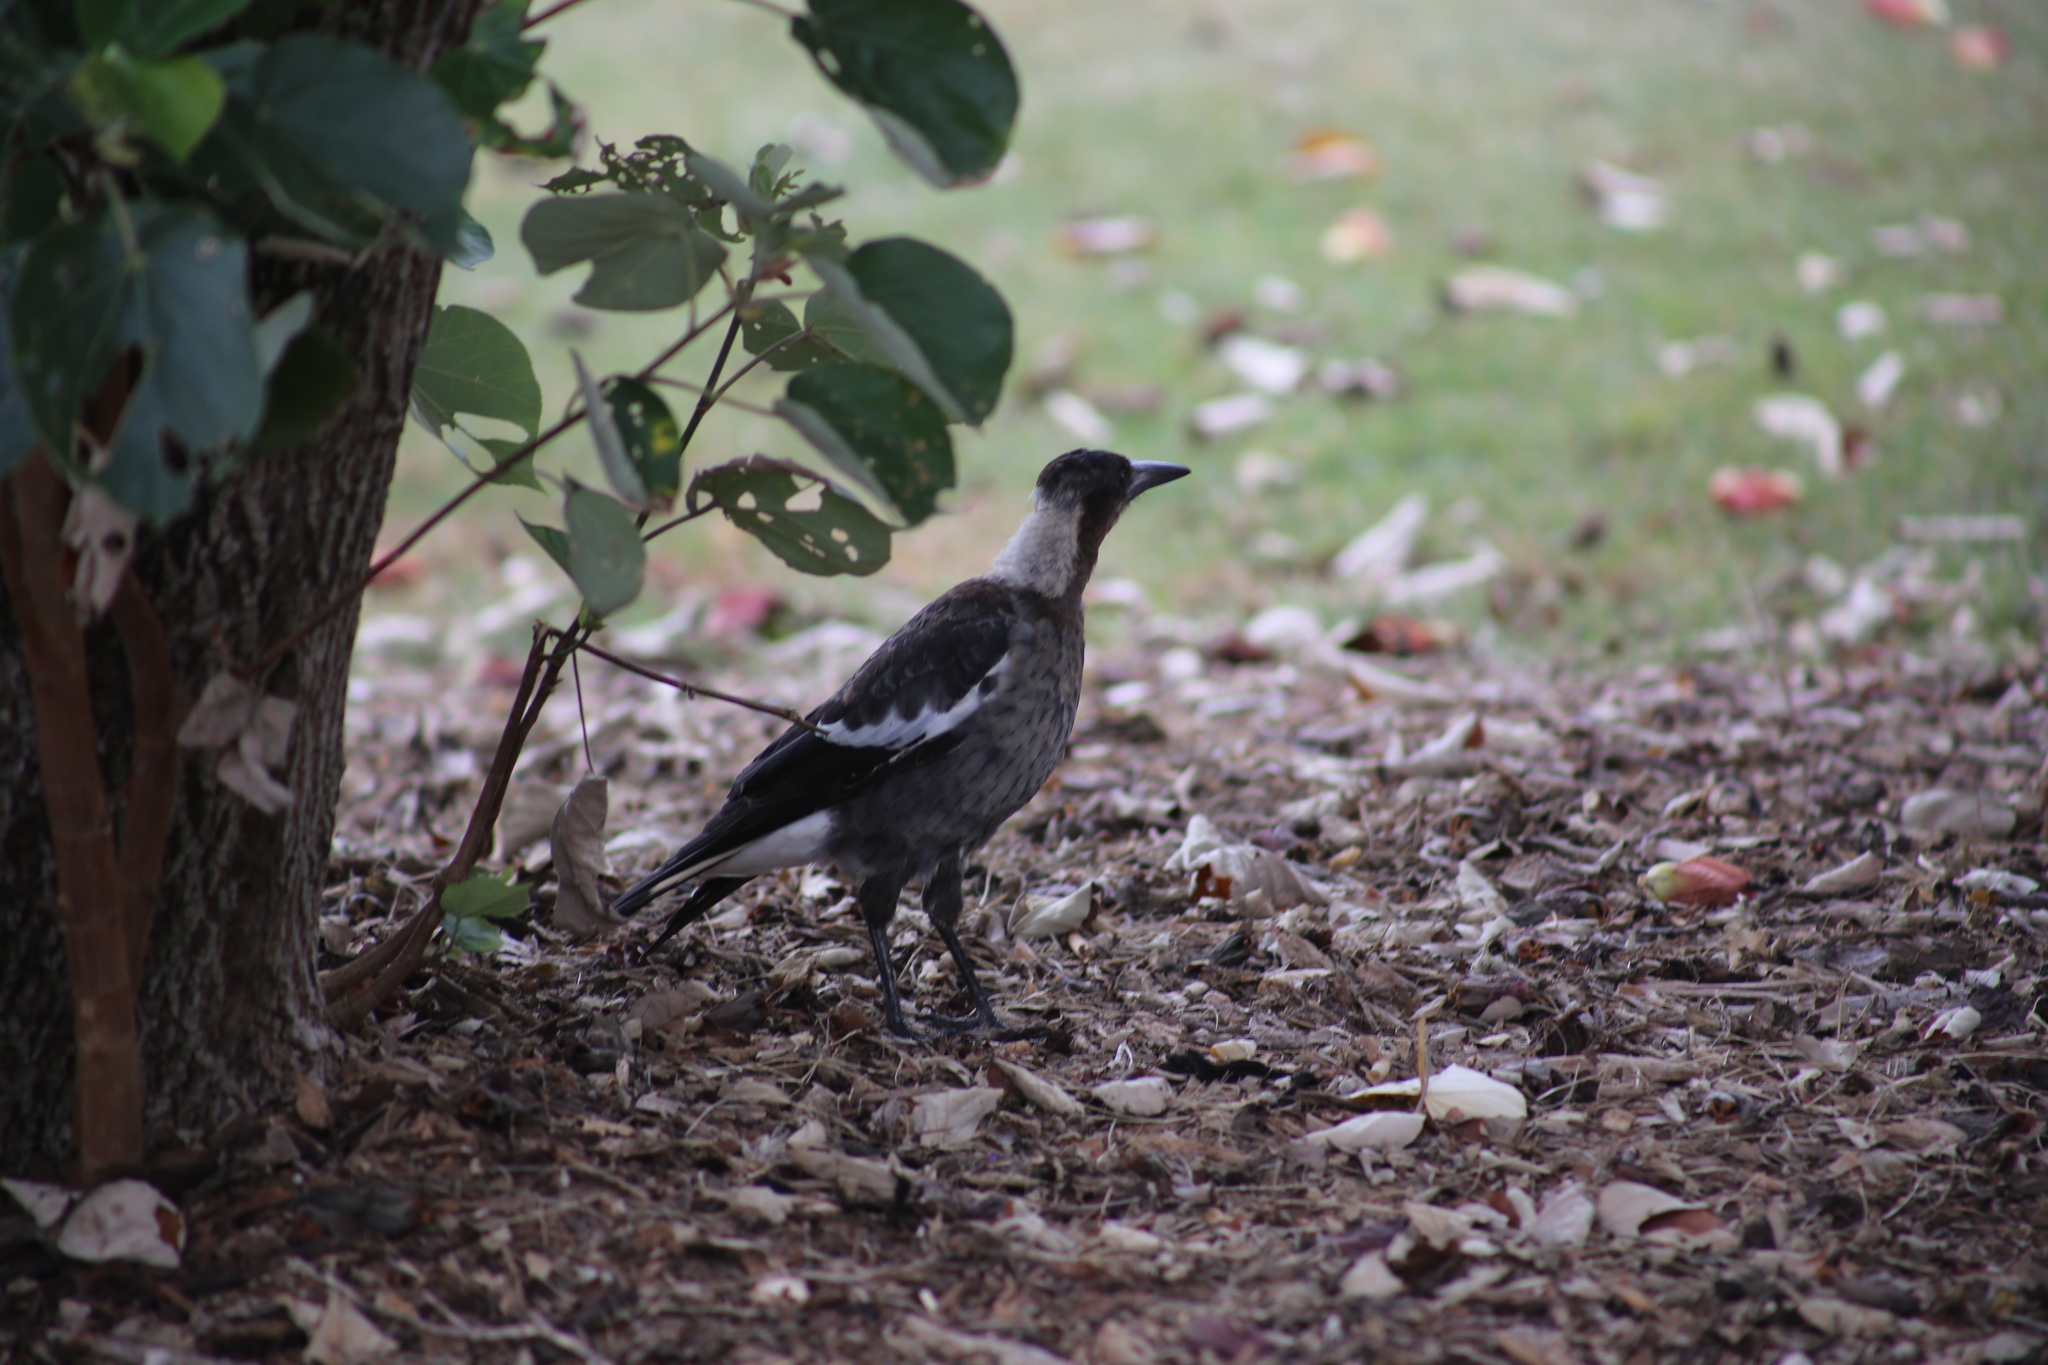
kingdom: Animalia
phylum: Chordata
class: Aves
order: Passeriformes
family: Cracticidae
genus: Gymnorhina
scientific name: Gymnorhina tibicen
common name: Australian magpie
